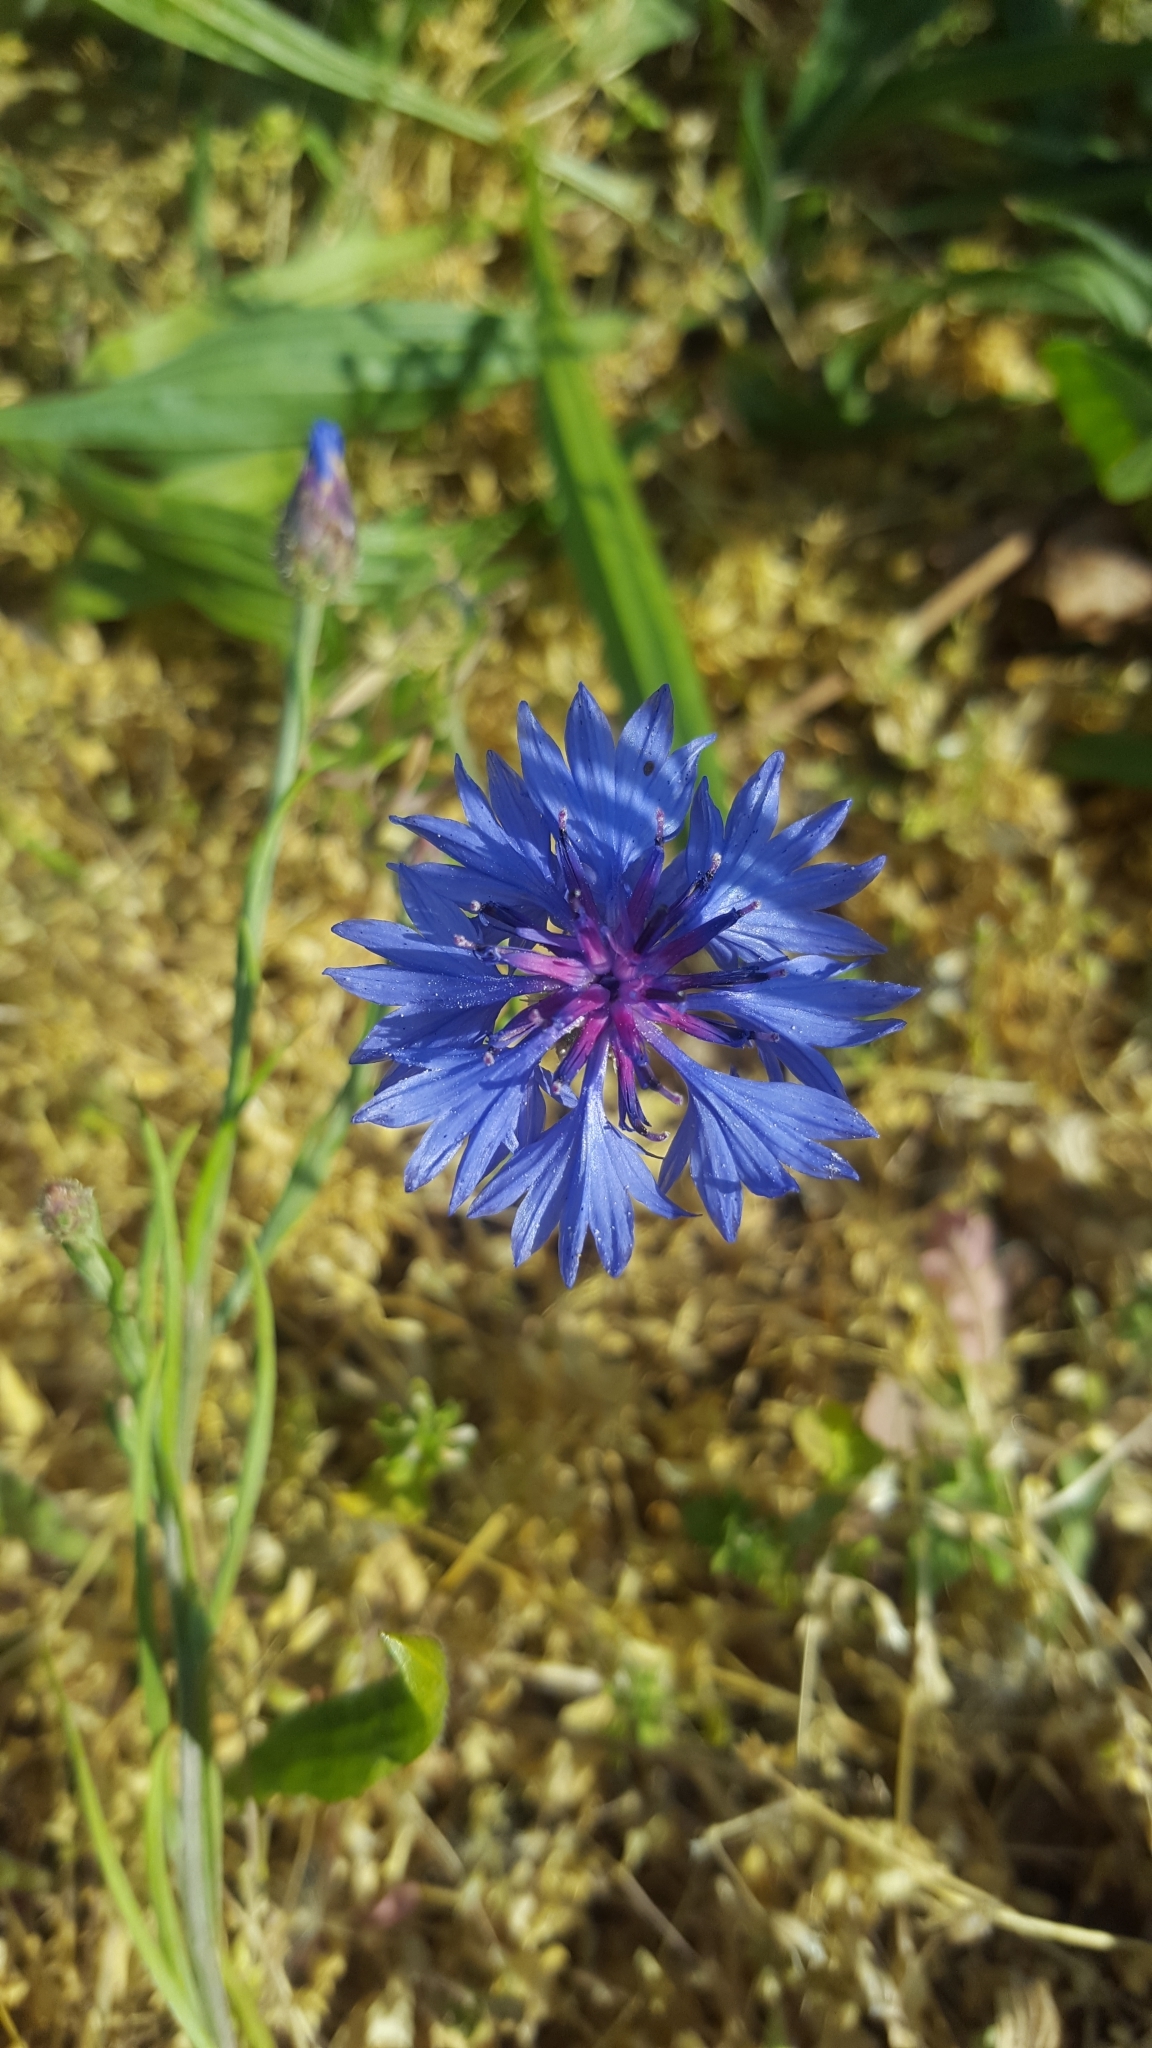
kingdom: Plantae
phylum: Tracheophyta
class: Magnoliopsida
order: Asterales
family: Asteraceae
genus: Centaurea
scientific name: Centaurea cyanus
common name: Cornflower
